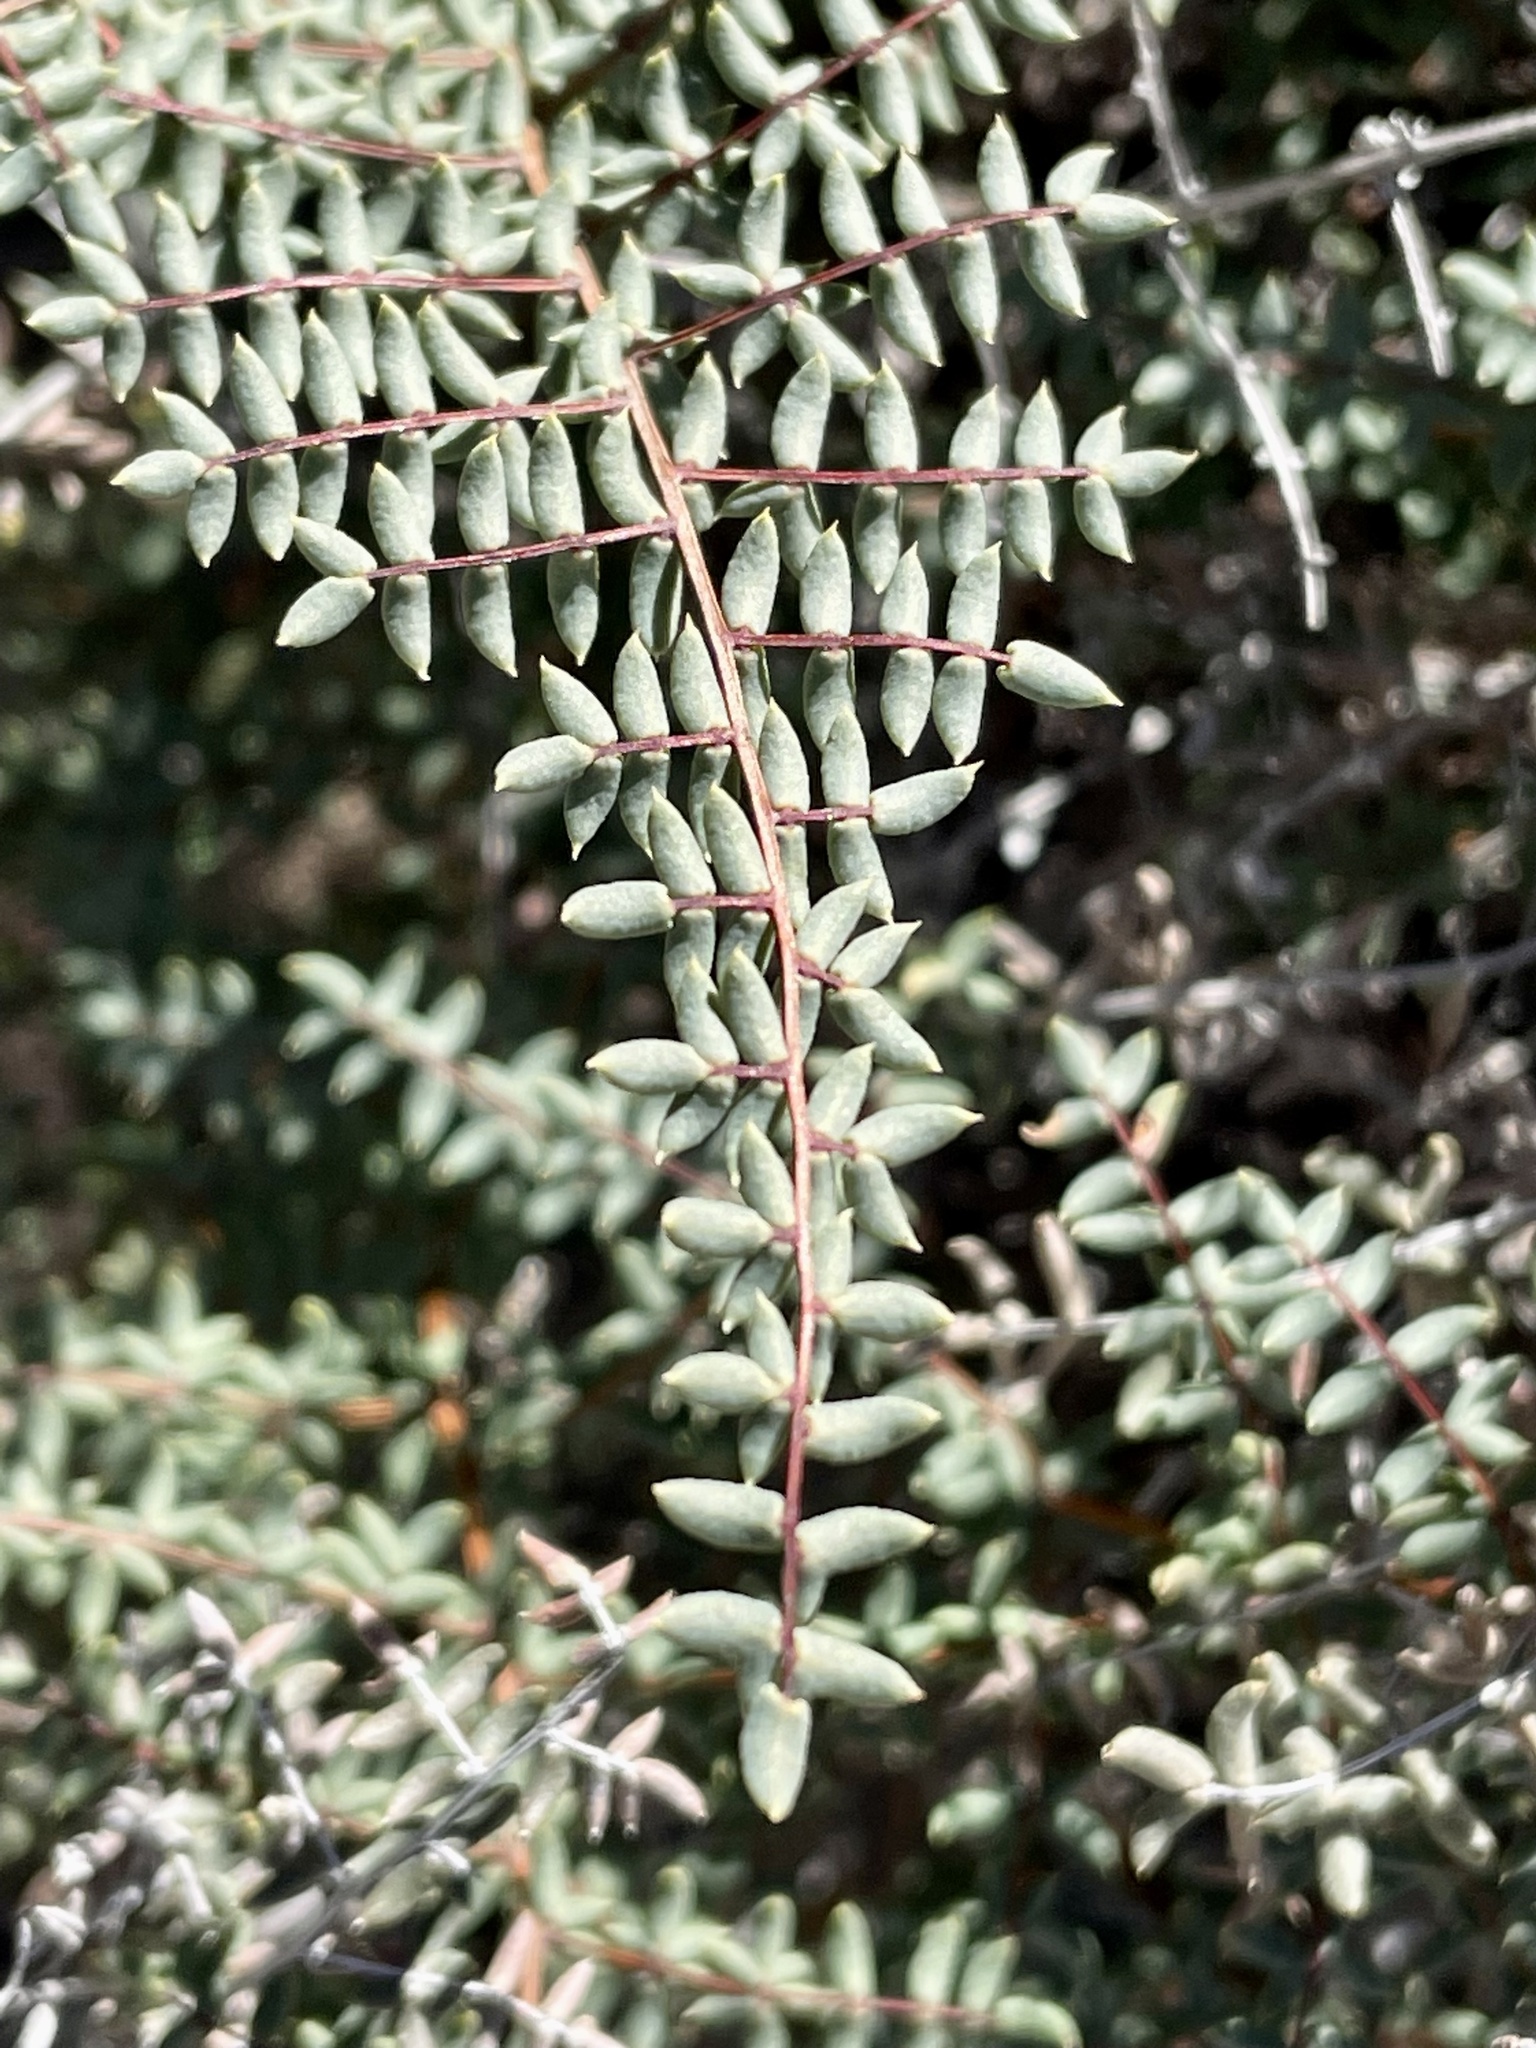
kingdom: Plantae
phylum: Tracheophyta
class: Polypodiopsida
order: Polypodiales
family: Pteridaceae
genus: Pellaea
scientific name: Pellaea mucronata
